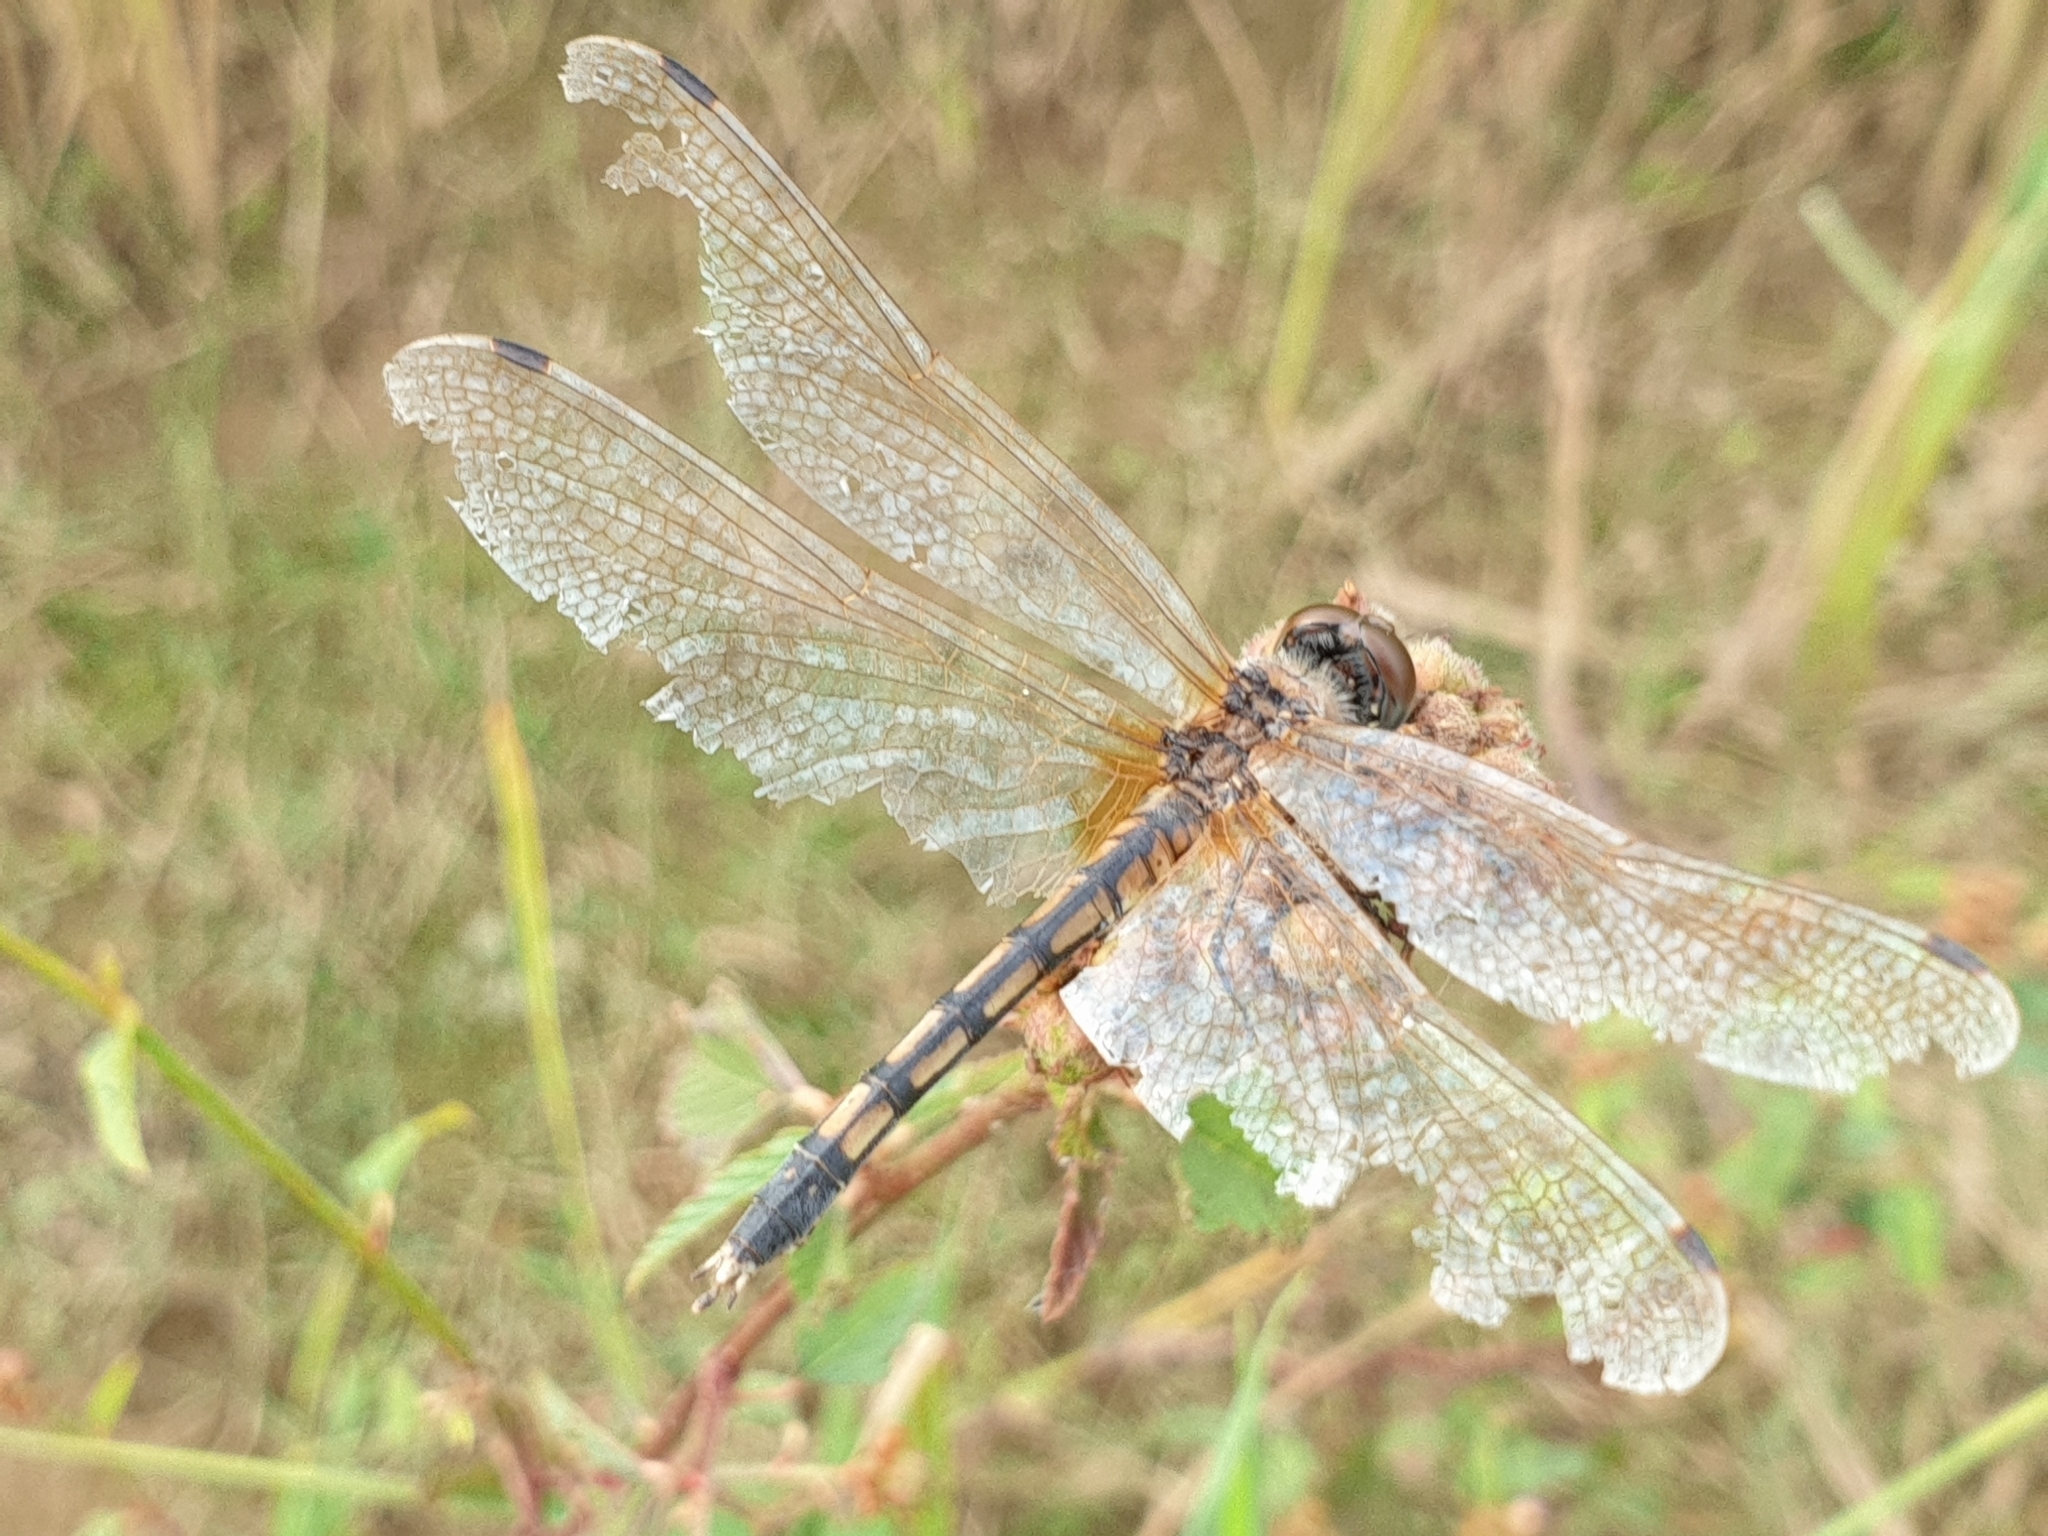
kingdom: Animalia
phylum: Arthropoda
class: Insecta
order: Odonata
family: Libellulidae
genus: Trithemis
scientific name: Trithemis pallidinervis
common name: Dancing dropwing
